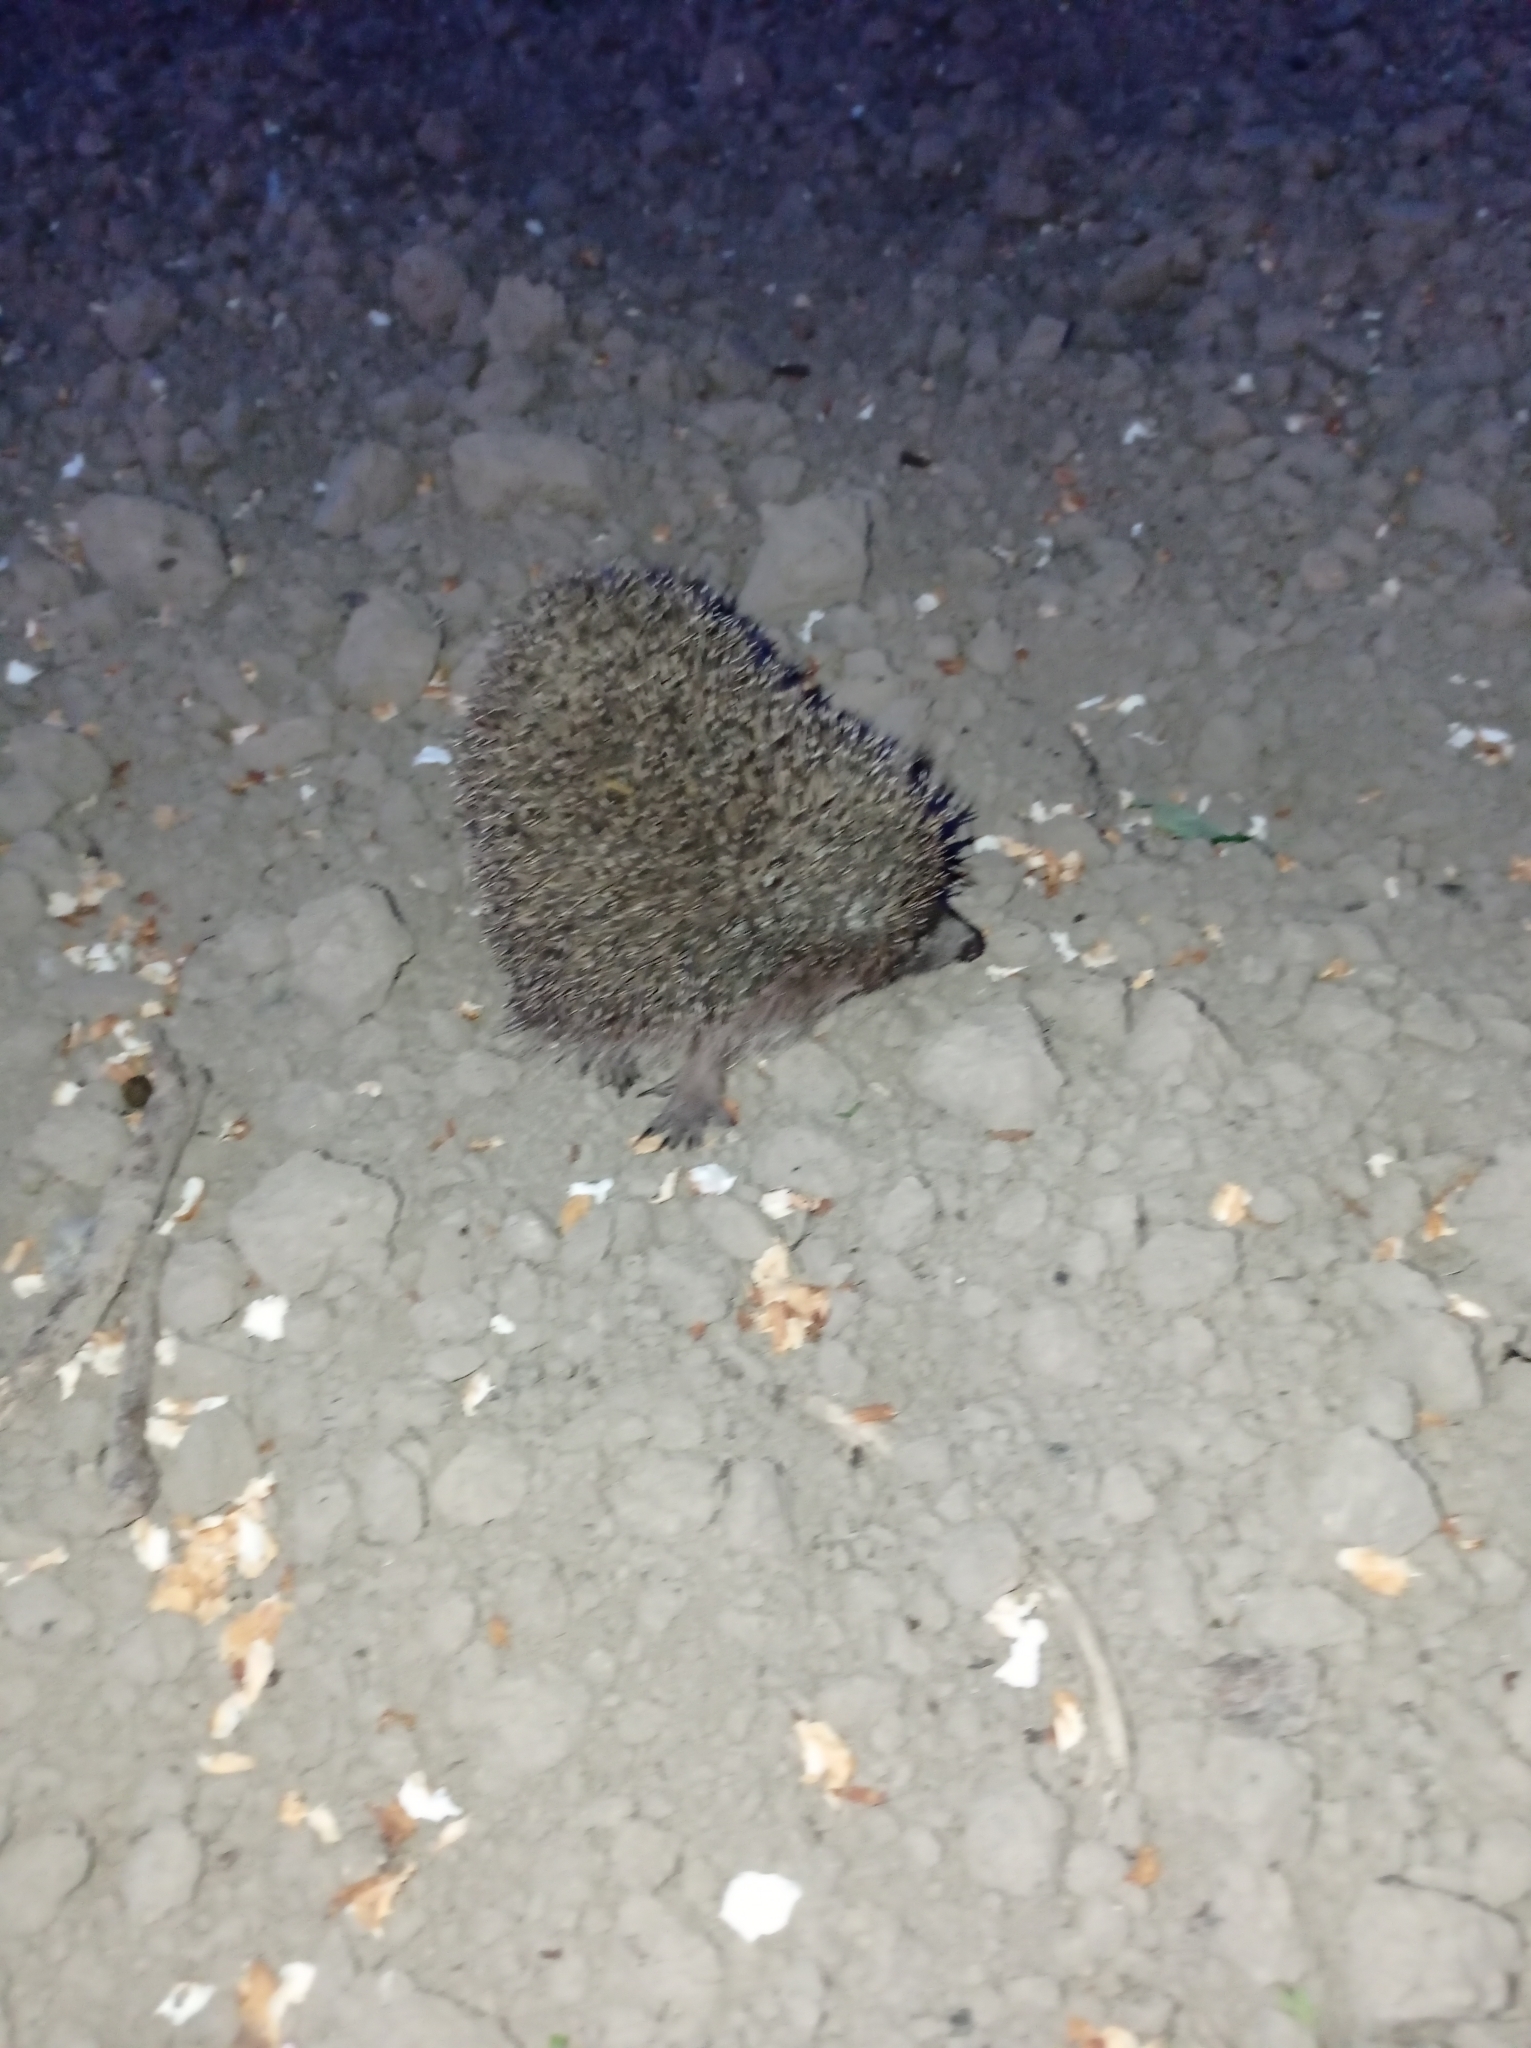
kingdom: Animalia
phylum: Chordata
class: Mammalia
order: Erinaceomorpha
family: Erinaceidae
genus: Erinaceus
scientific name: Erinaceus roumanicus
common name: Northern white-breasted hedgehog
